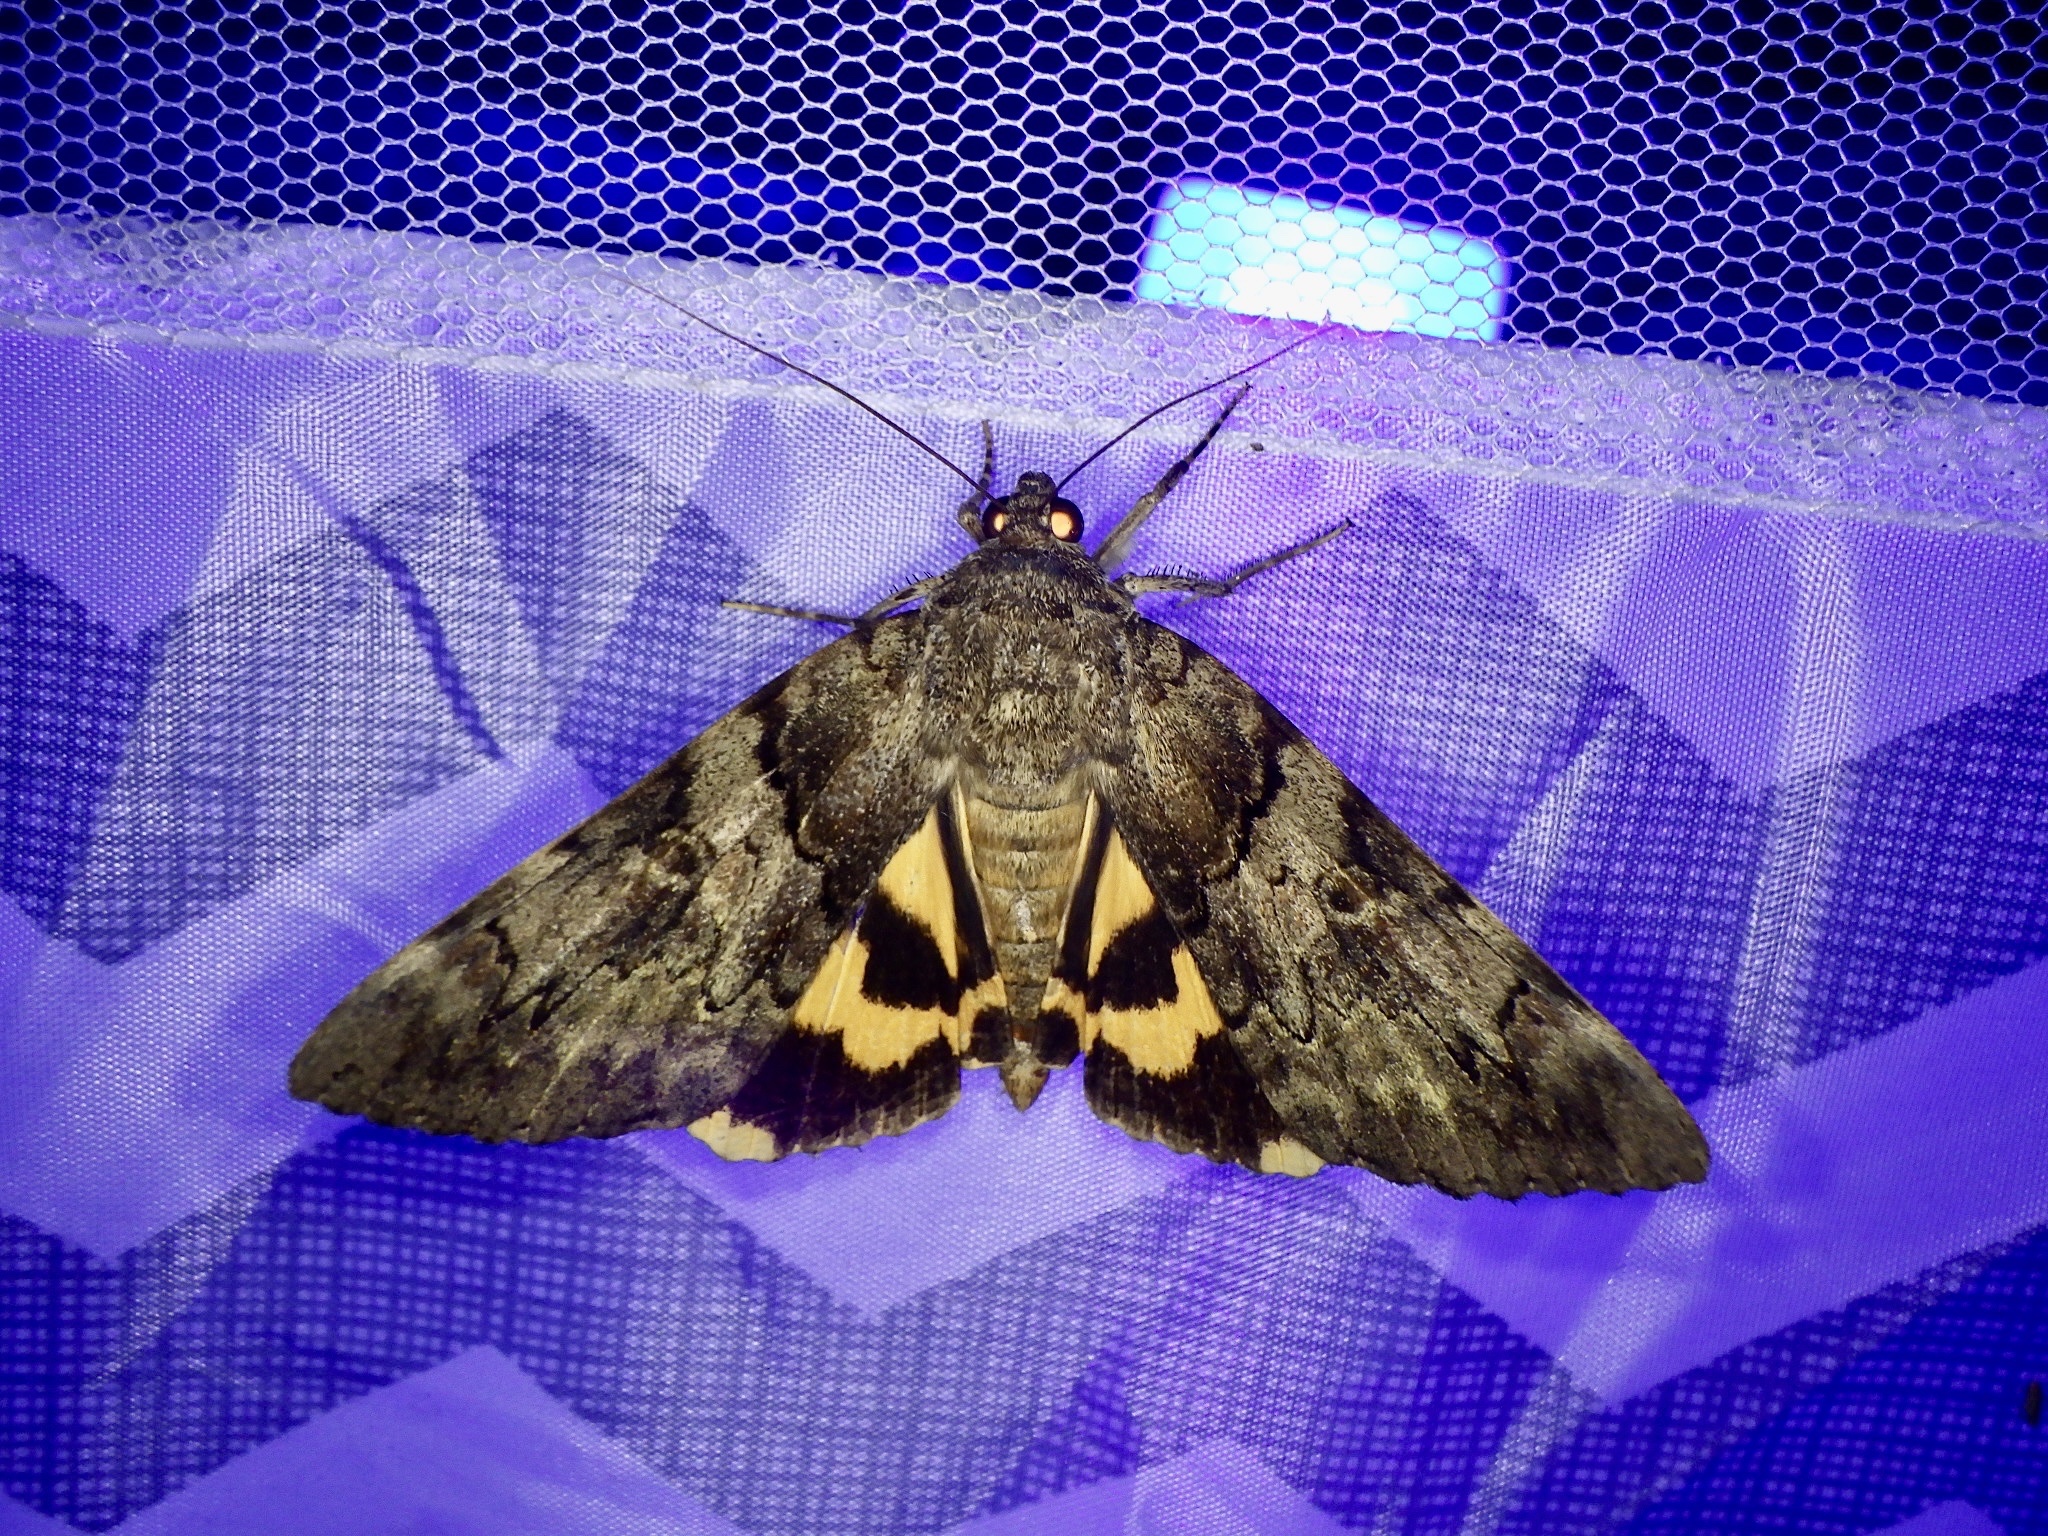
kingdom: Animalia
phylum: Arthropoda
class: Insecta
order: Lepidoptera
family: Erebidae
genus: Catocala
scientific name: Catocala patala
